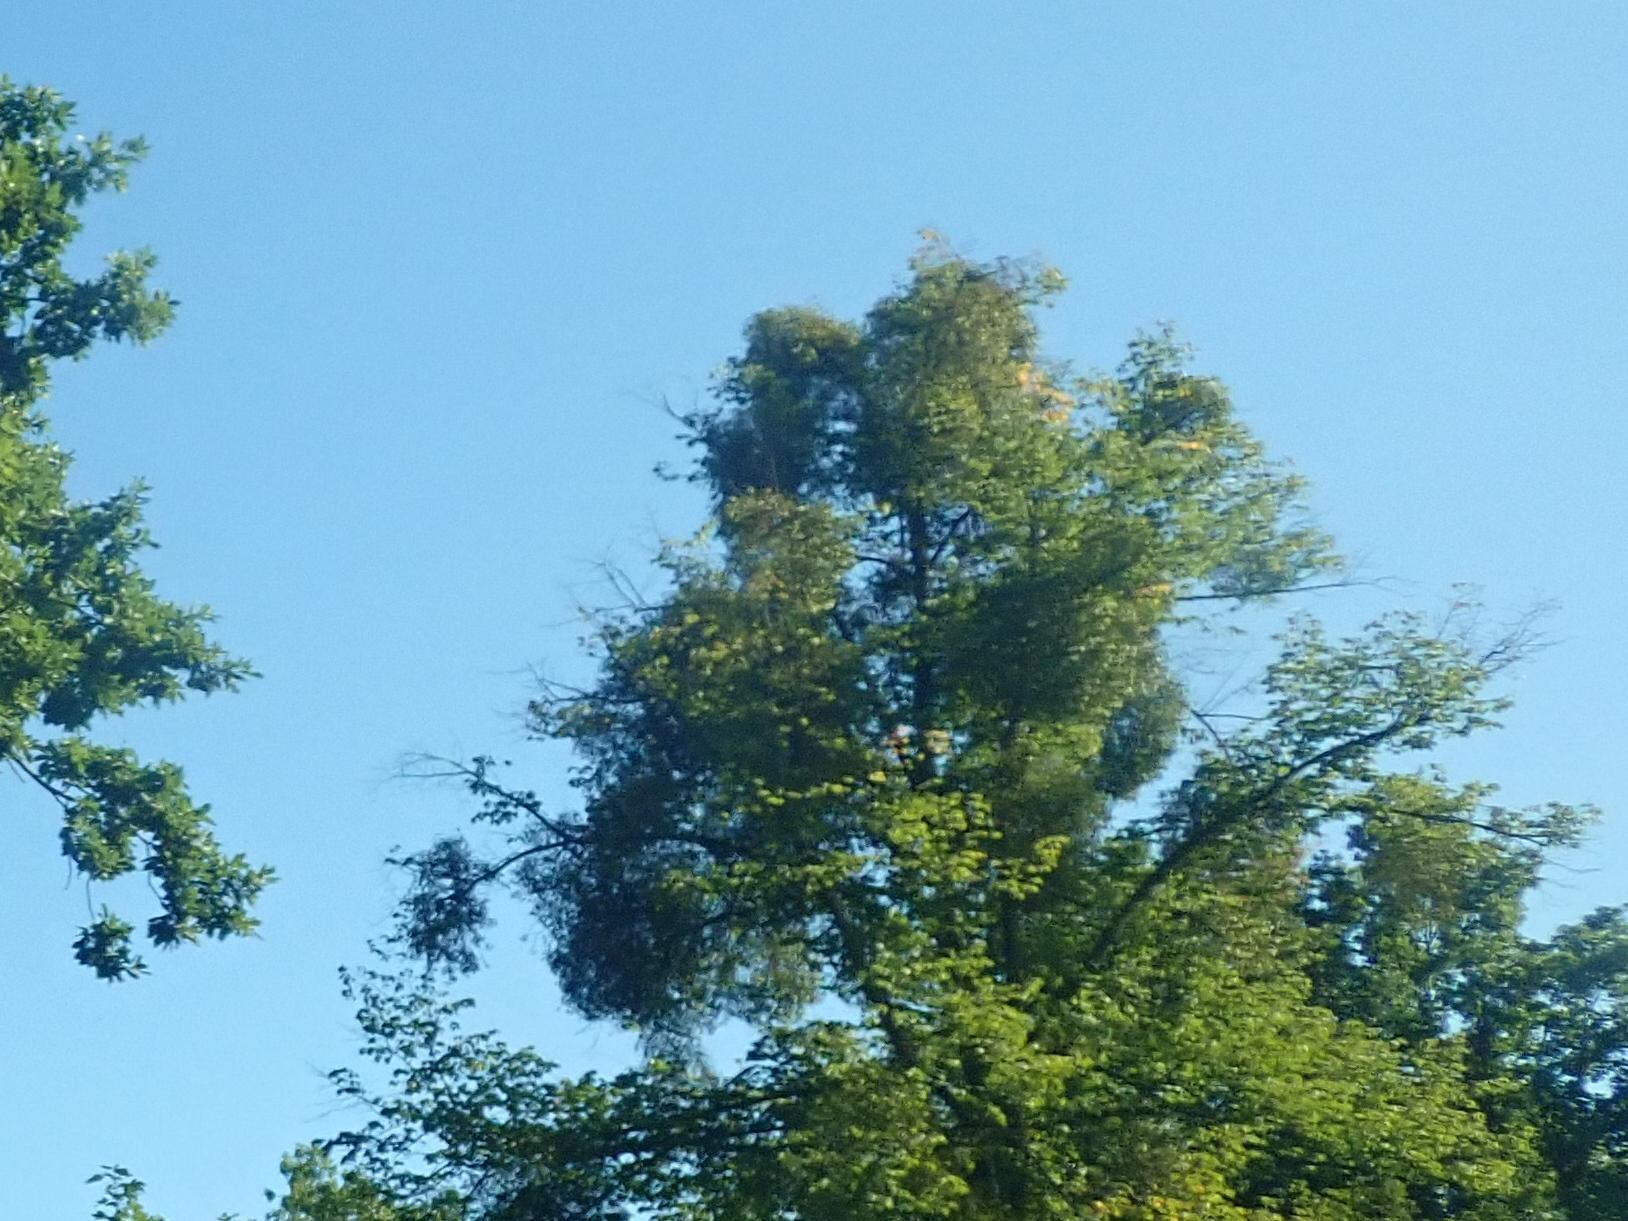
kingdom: Plantae
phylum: Tracheophyta
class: Magnoliopsida
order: Santalales
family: Viscaceae
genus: Viscum
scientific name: Viscum album
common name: Mistletoe
